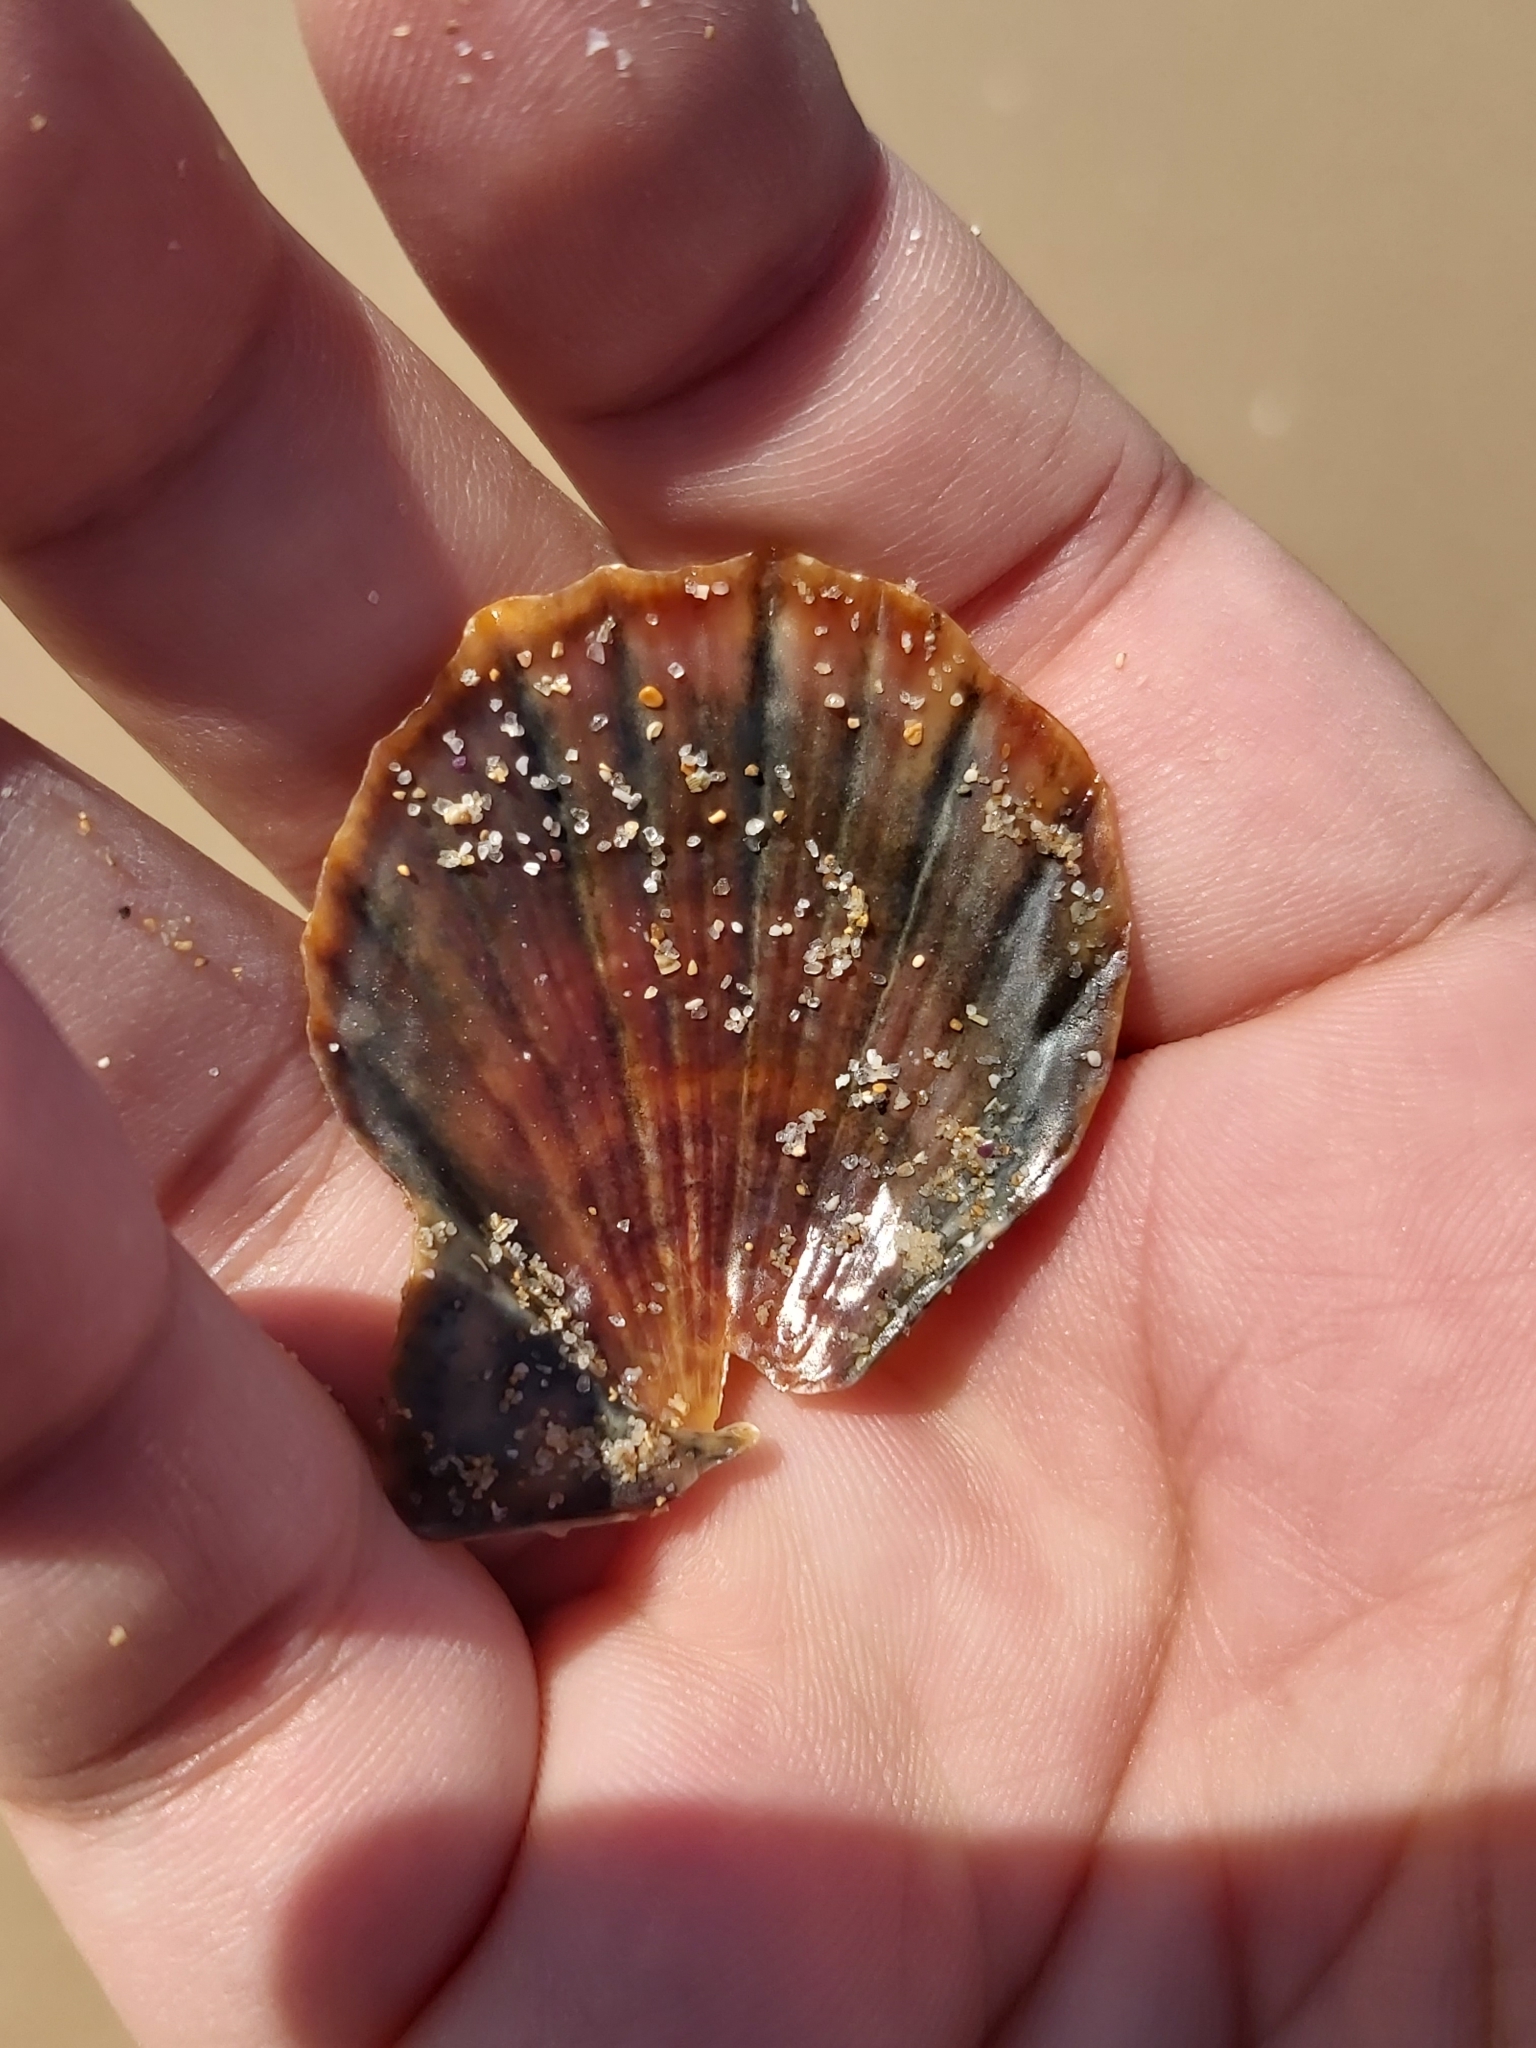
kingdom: Animalia
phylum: Mollusca
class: Bivalvia
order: Pectinida
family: Pectinidae
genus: Scaeochlamys
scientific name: Scaeochlamys livida
